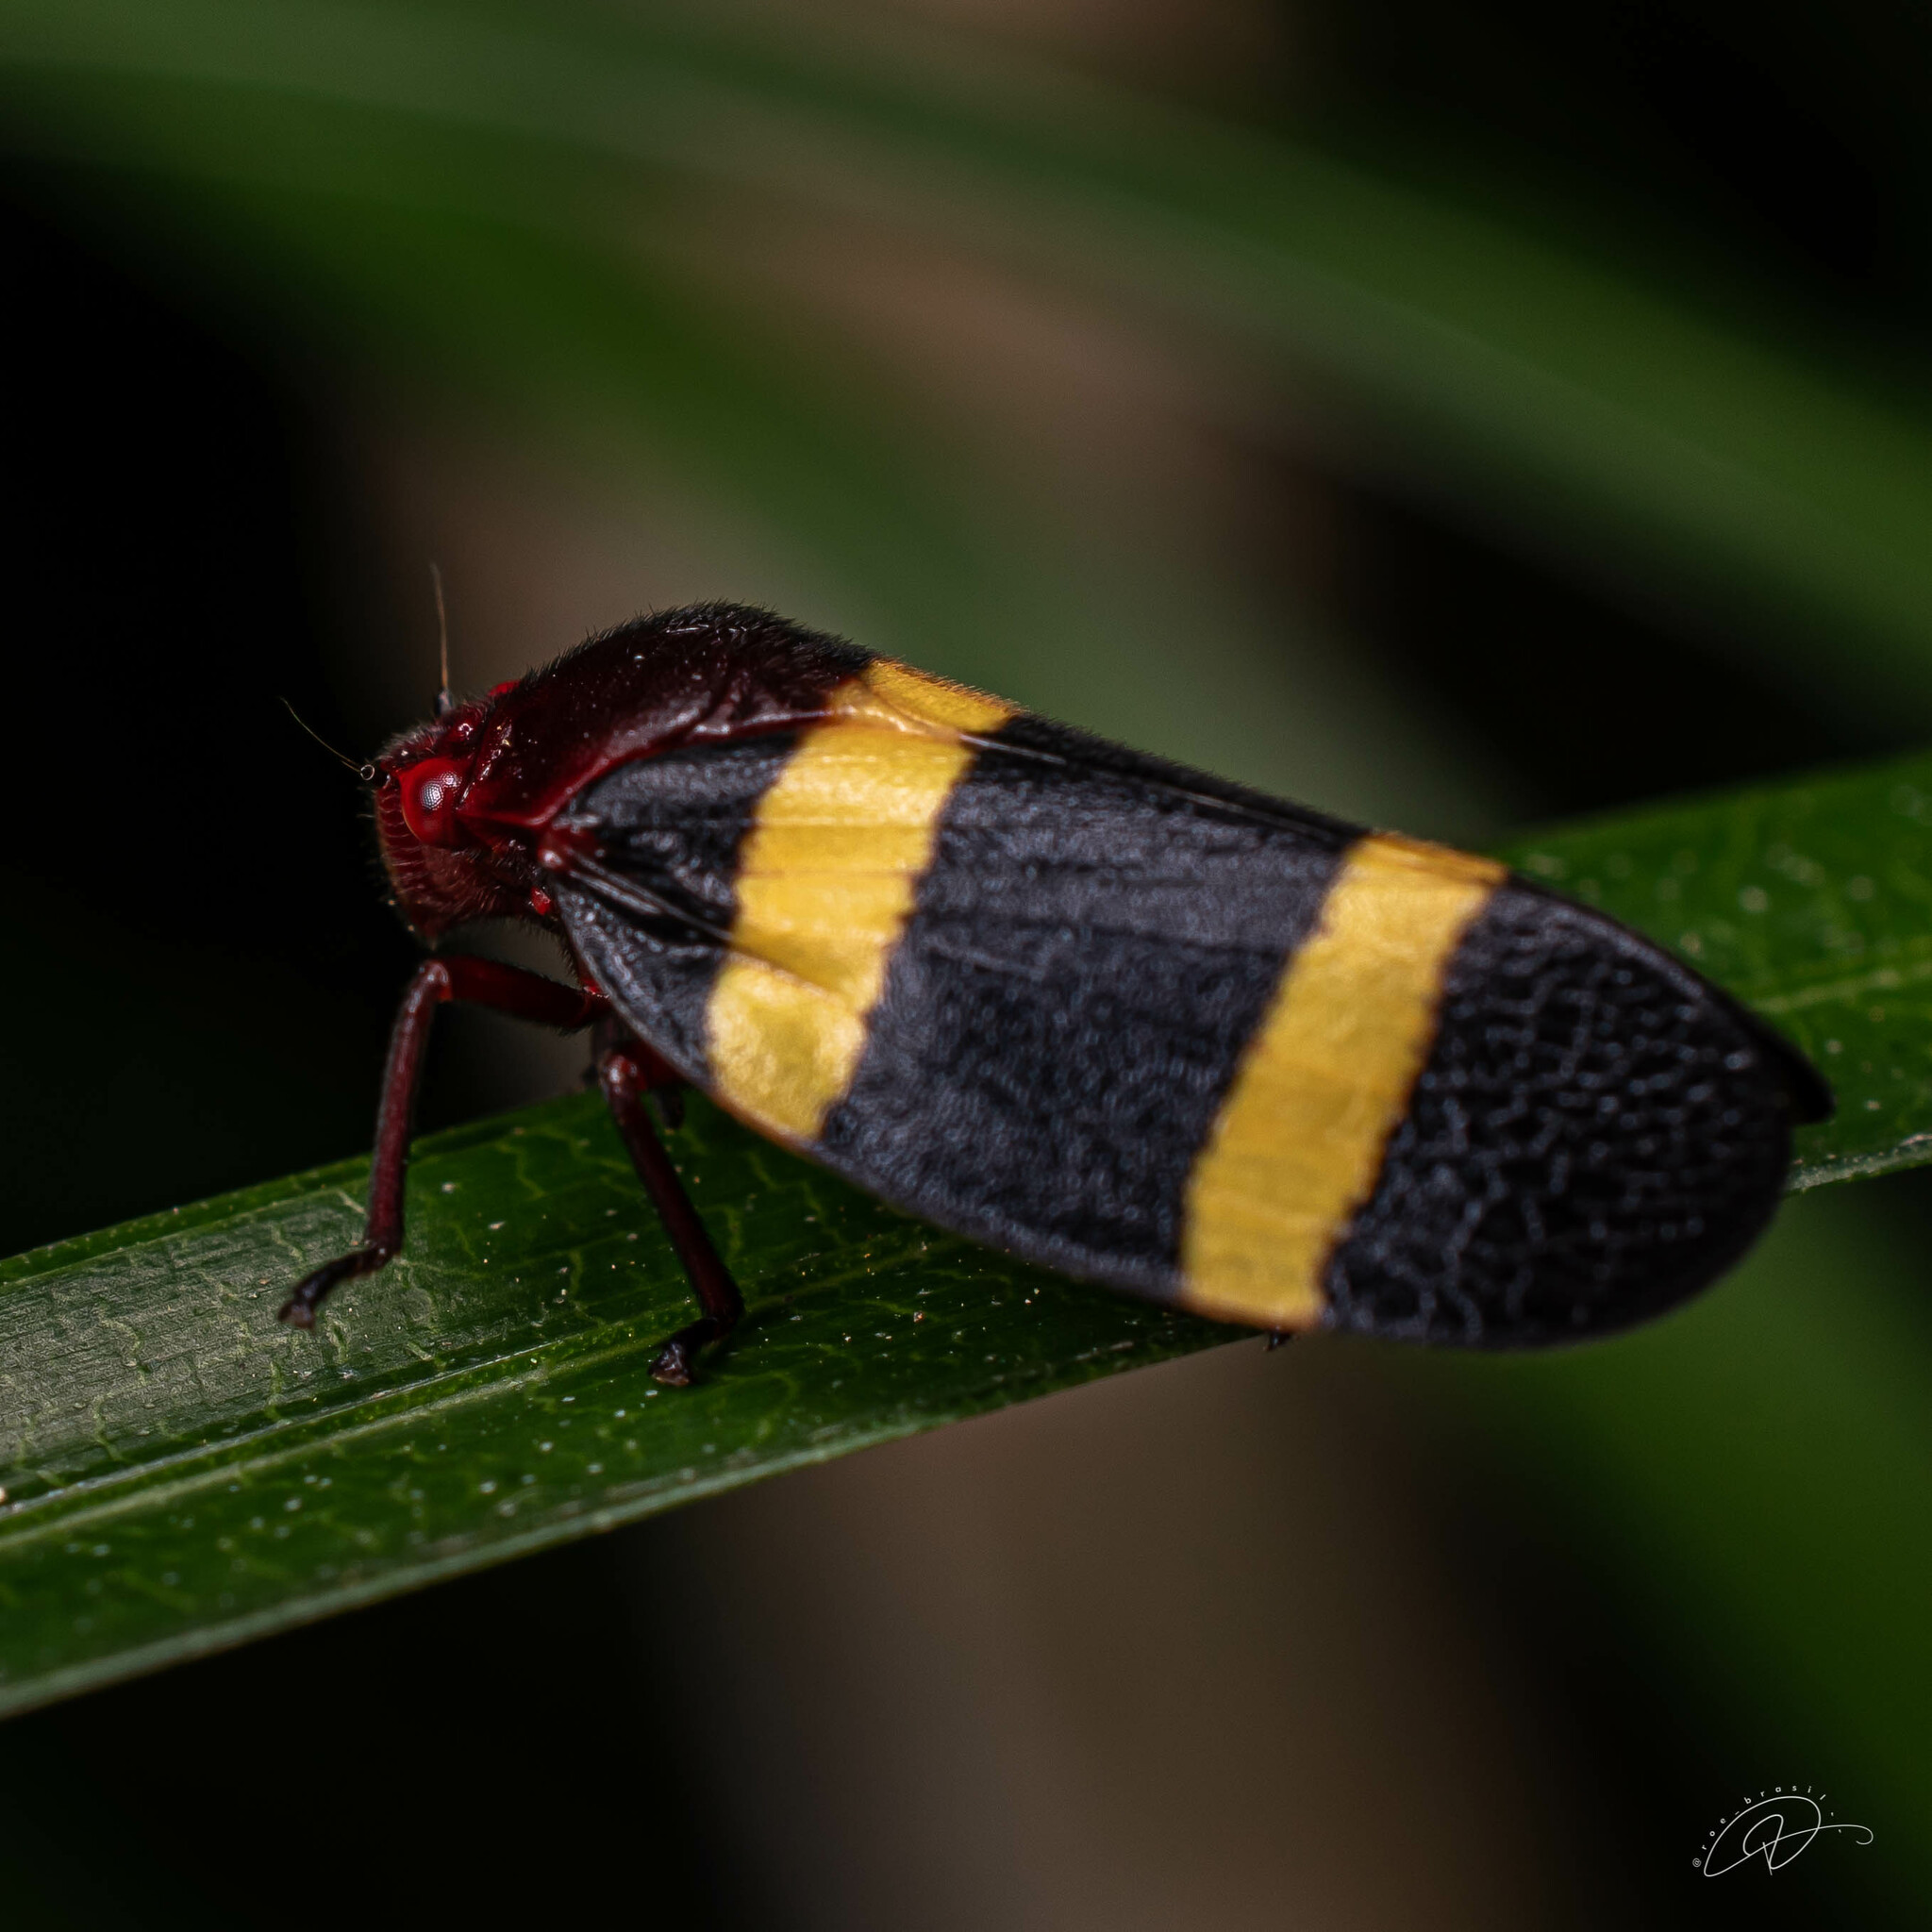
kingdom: Animalia
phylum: Arthropoda
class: Insecta
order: Hemiptera
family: Cercopidae
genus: Sphenorhina
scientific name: Sphenorhina rubra
